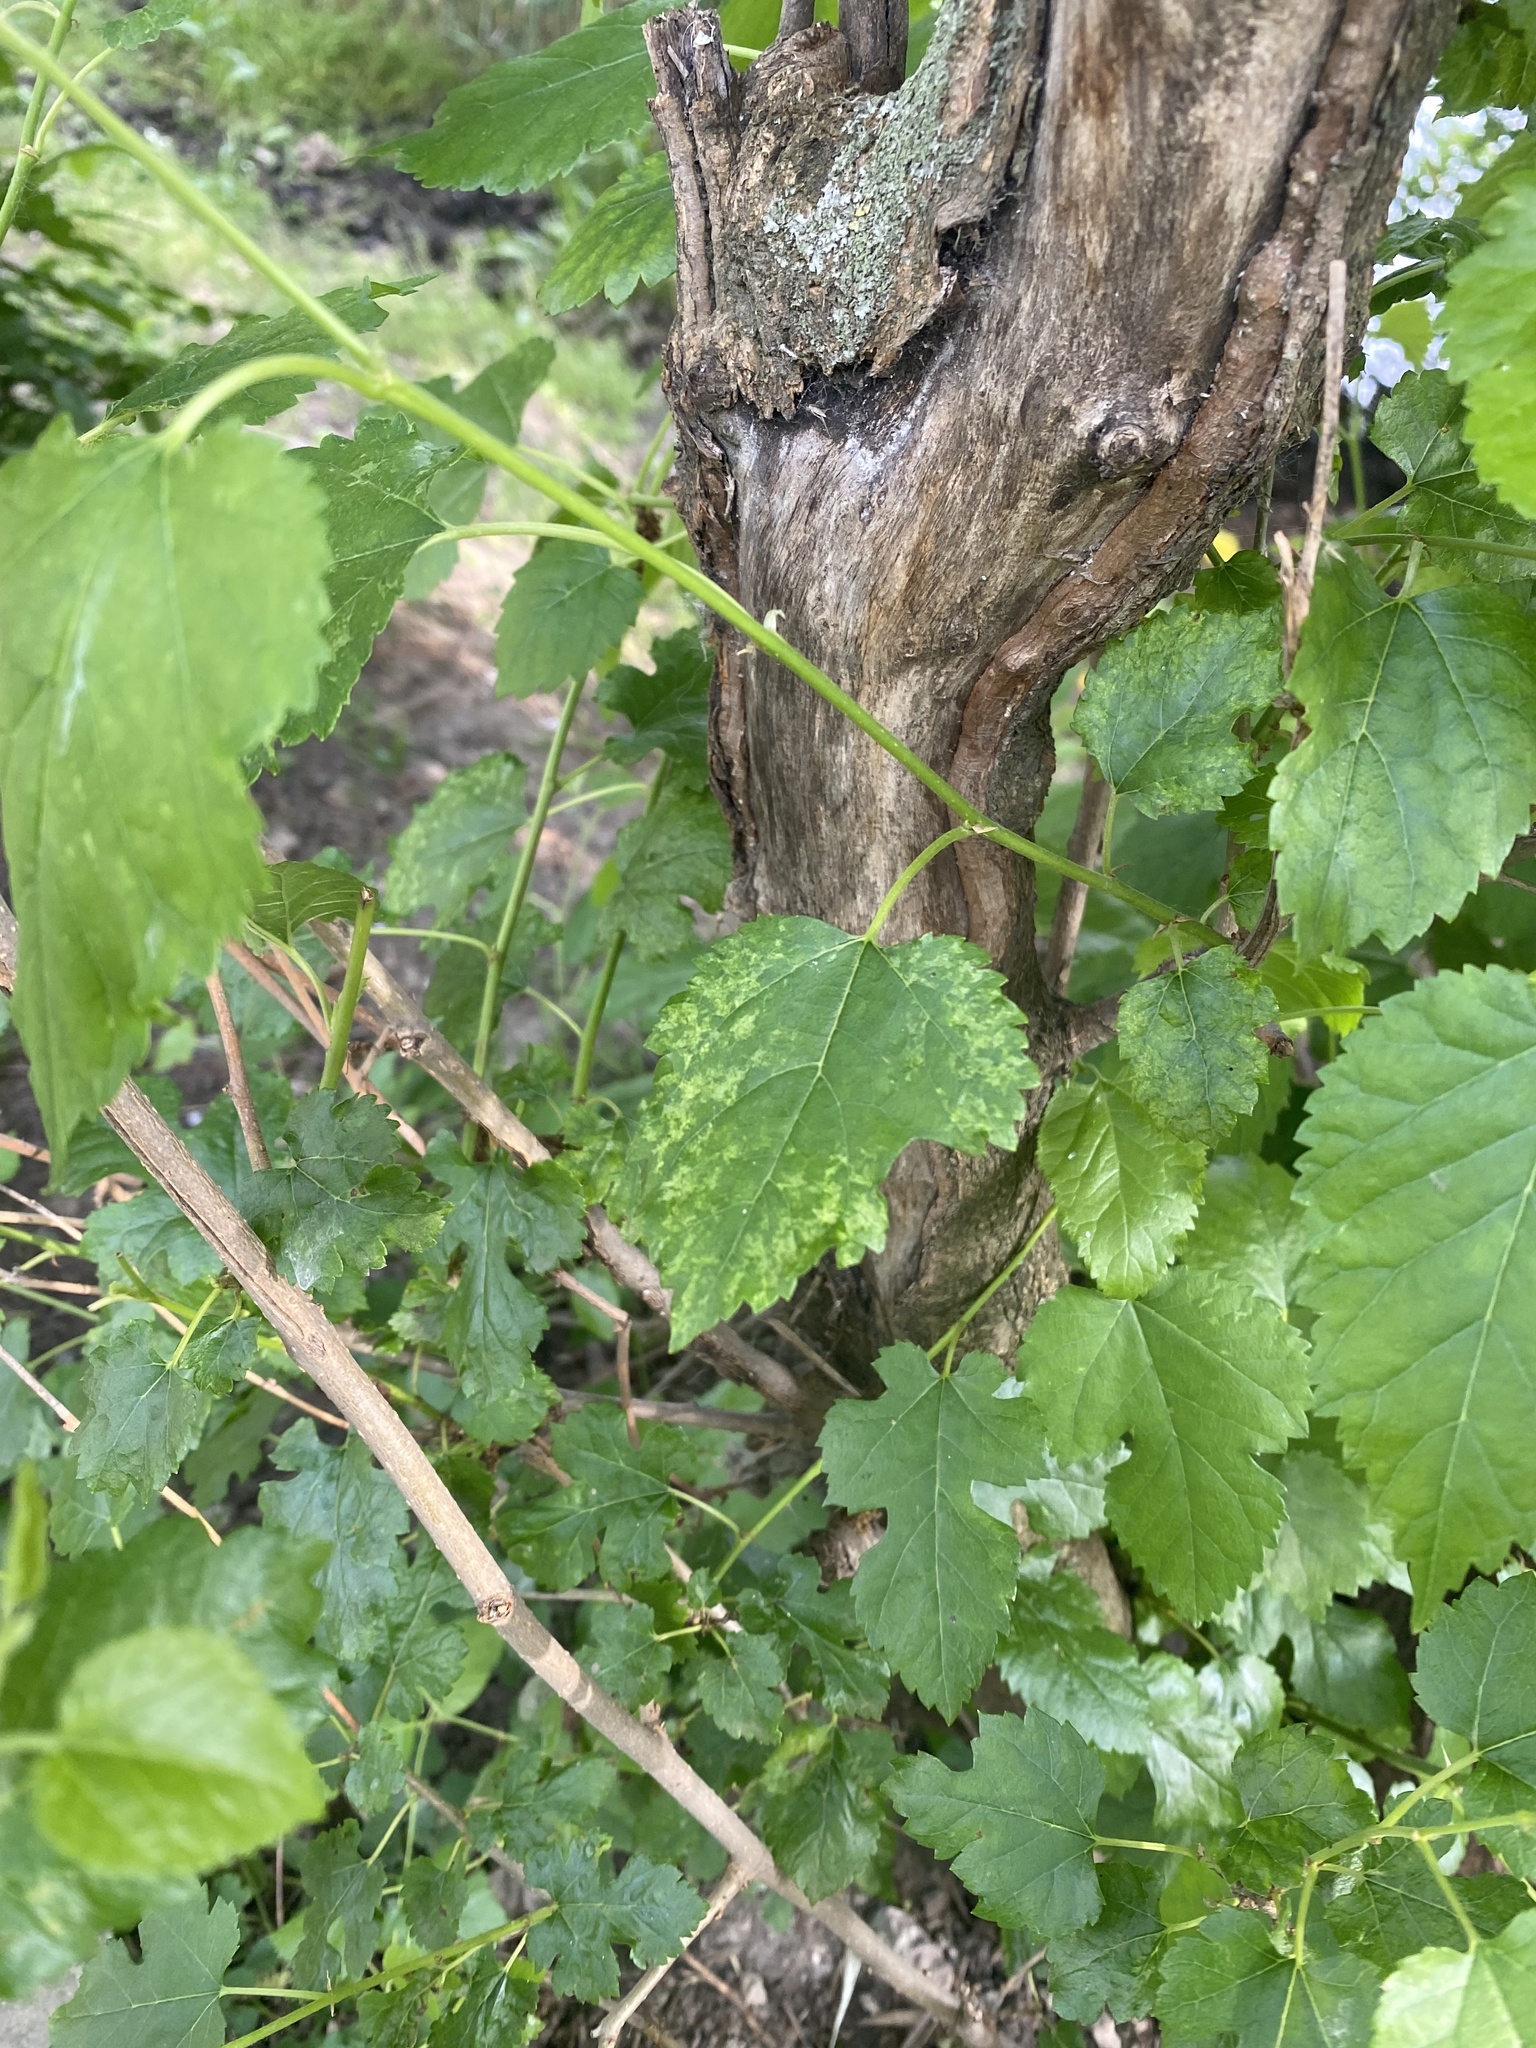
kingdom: Plantae
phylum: Tracheophyta
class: Magnoliopsida
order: Rosales
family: Moraceae
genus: Morus
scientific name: Morus alba
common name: White mulberry
